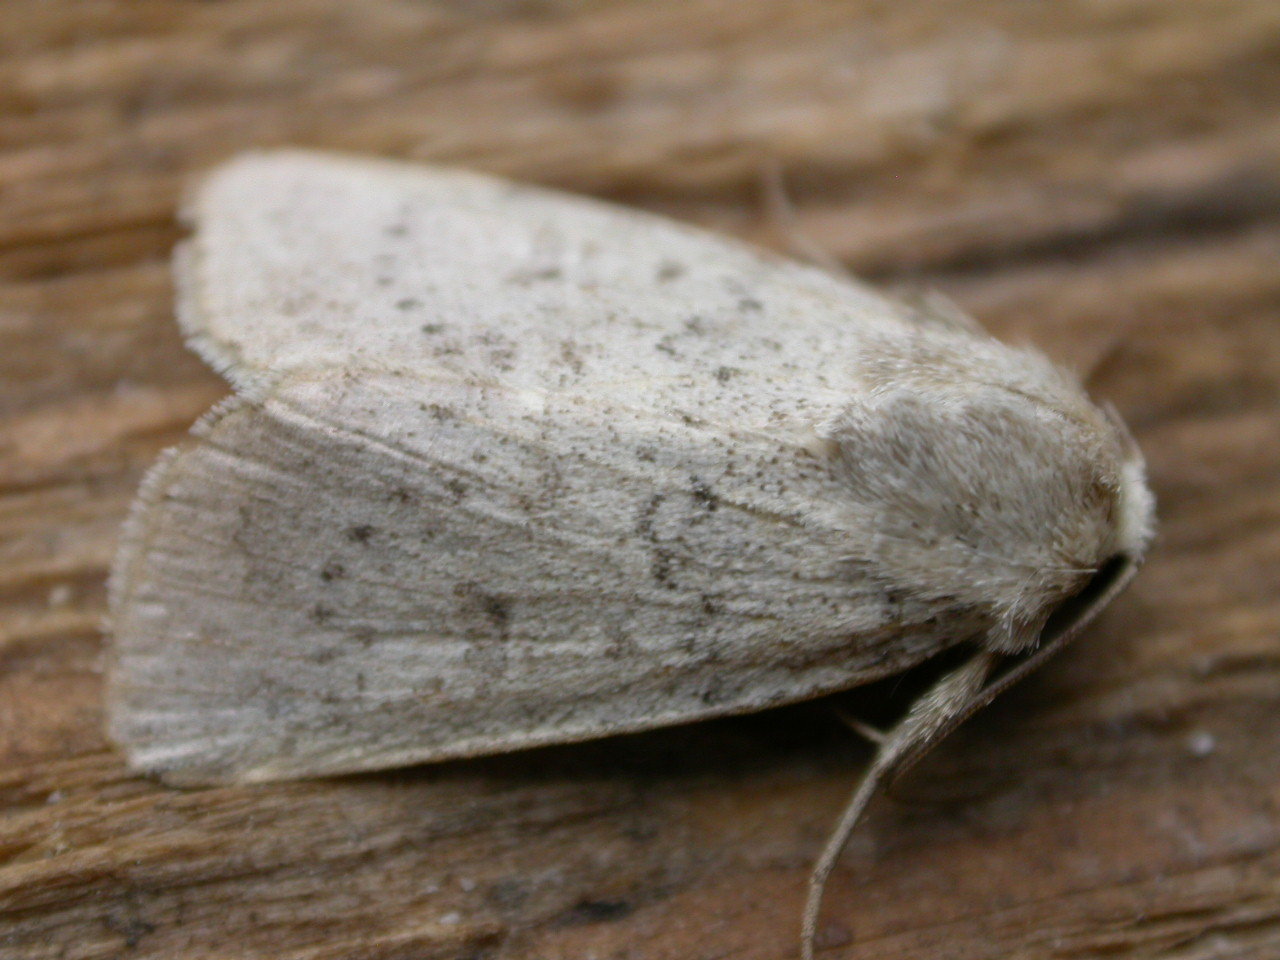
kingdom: Animalia
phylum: Arthropoda
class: Insecta
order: Lepidoptera
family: Noctuidae
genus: Hoplodrina
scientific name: Hoplodrina respersa
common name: Sprinkled rustic
